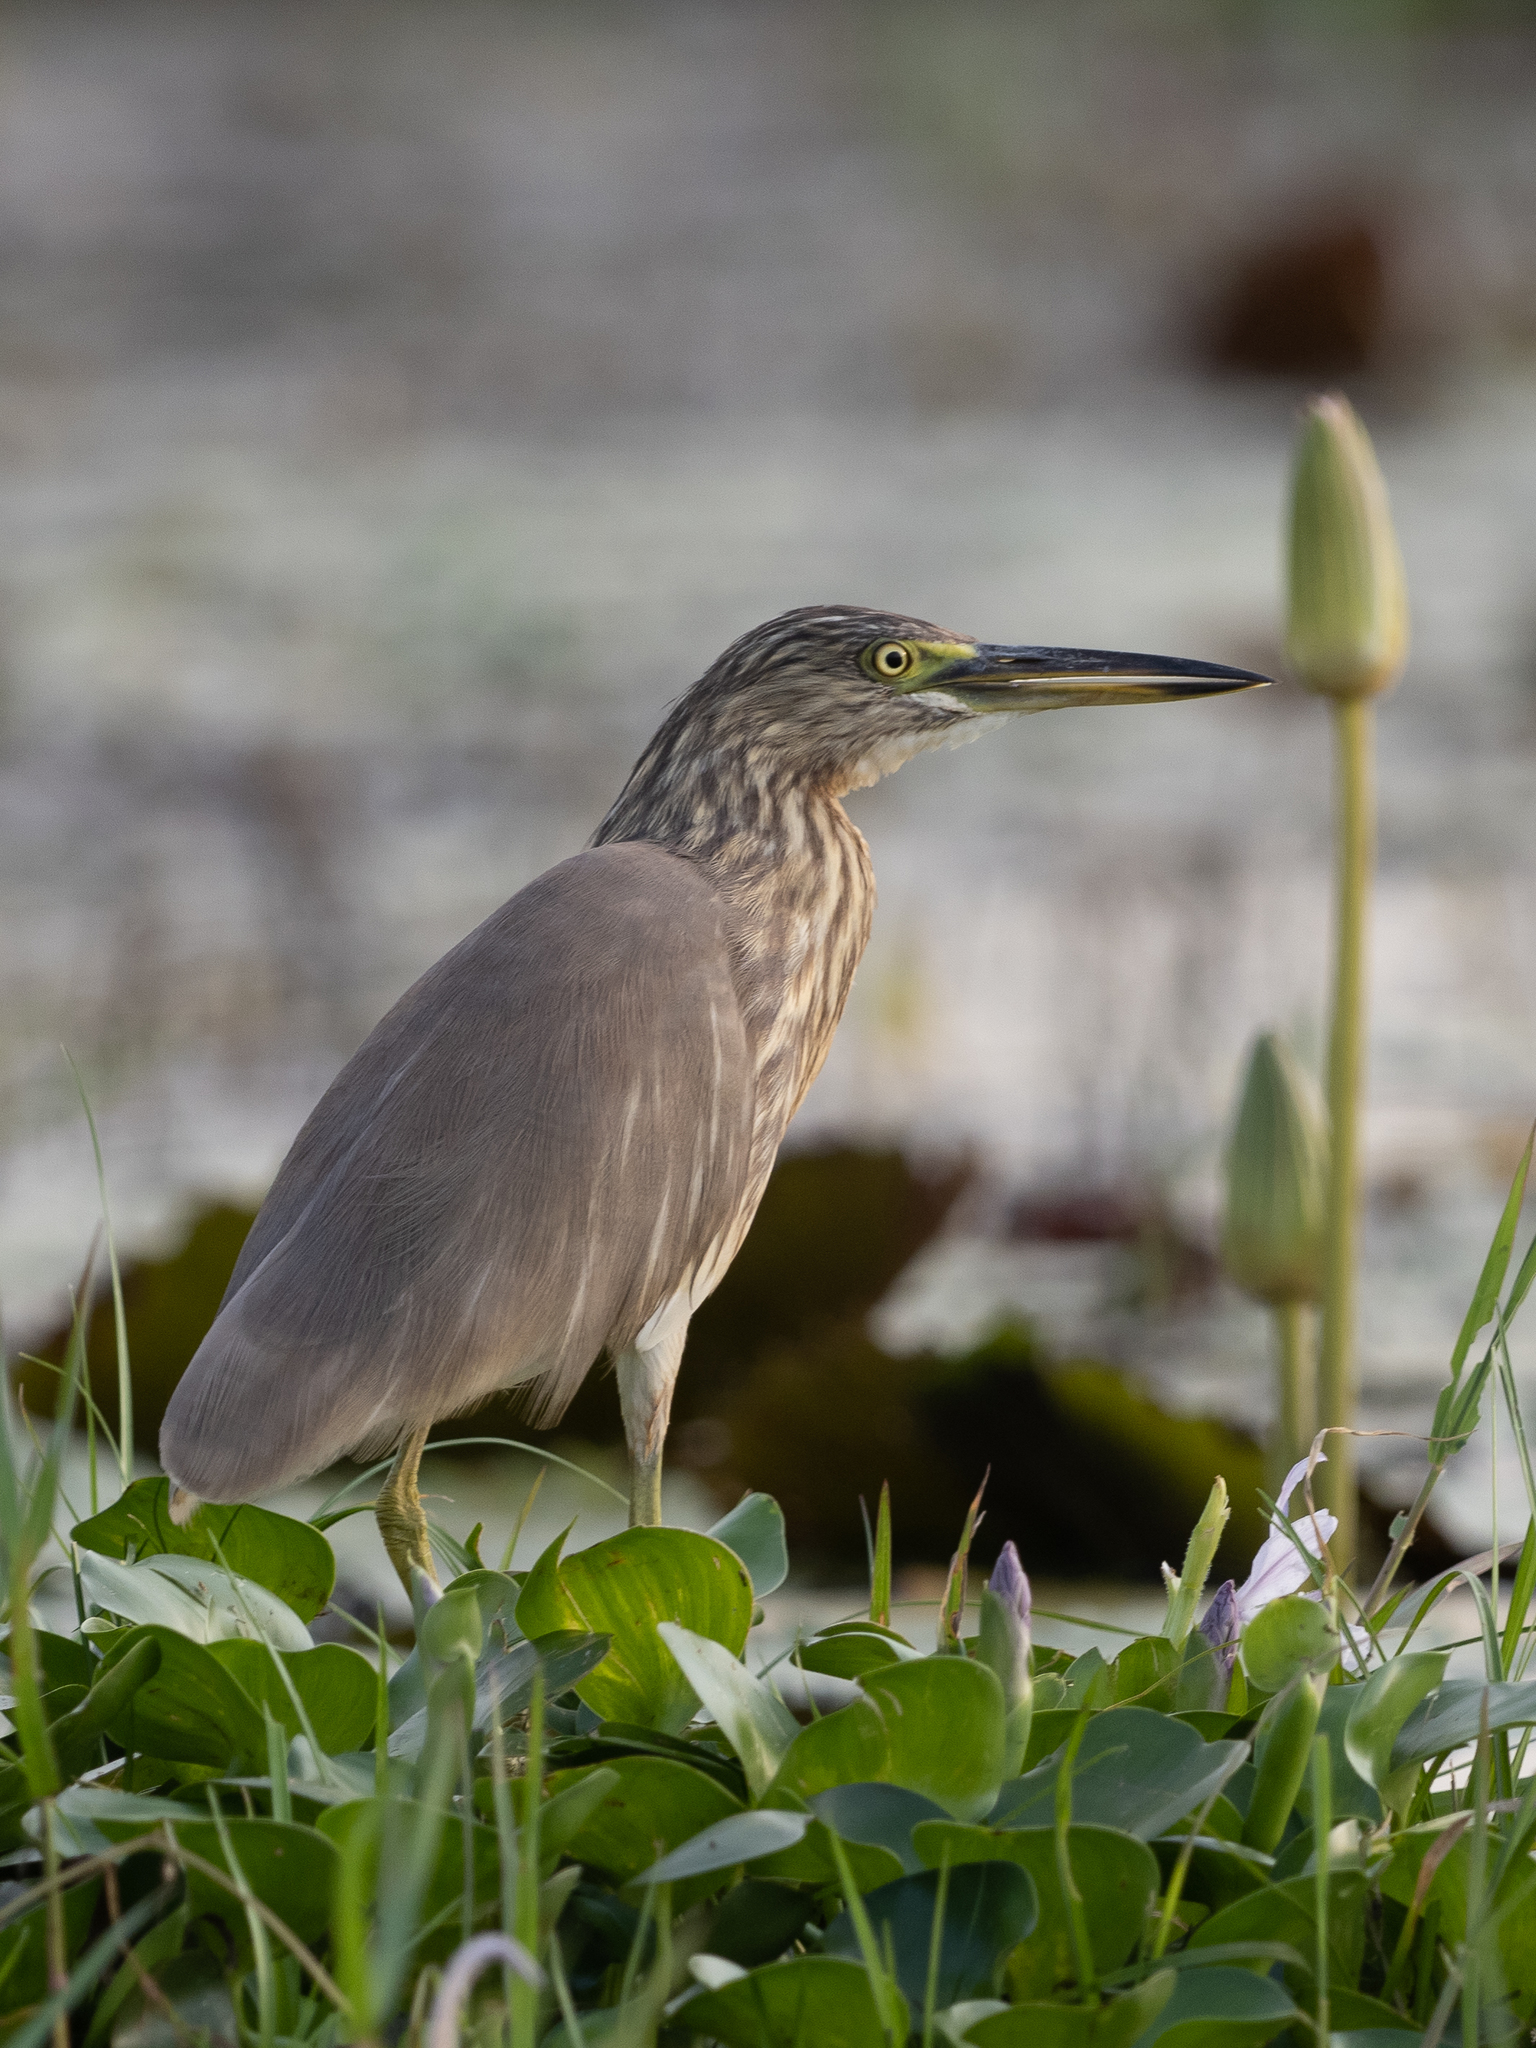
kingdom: Animalia
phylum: Chordata
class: Aves
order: Pelecaniformes
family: Ardeidae
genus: Ardeola
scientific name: Ardeola grayii
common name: Indian pond heron
